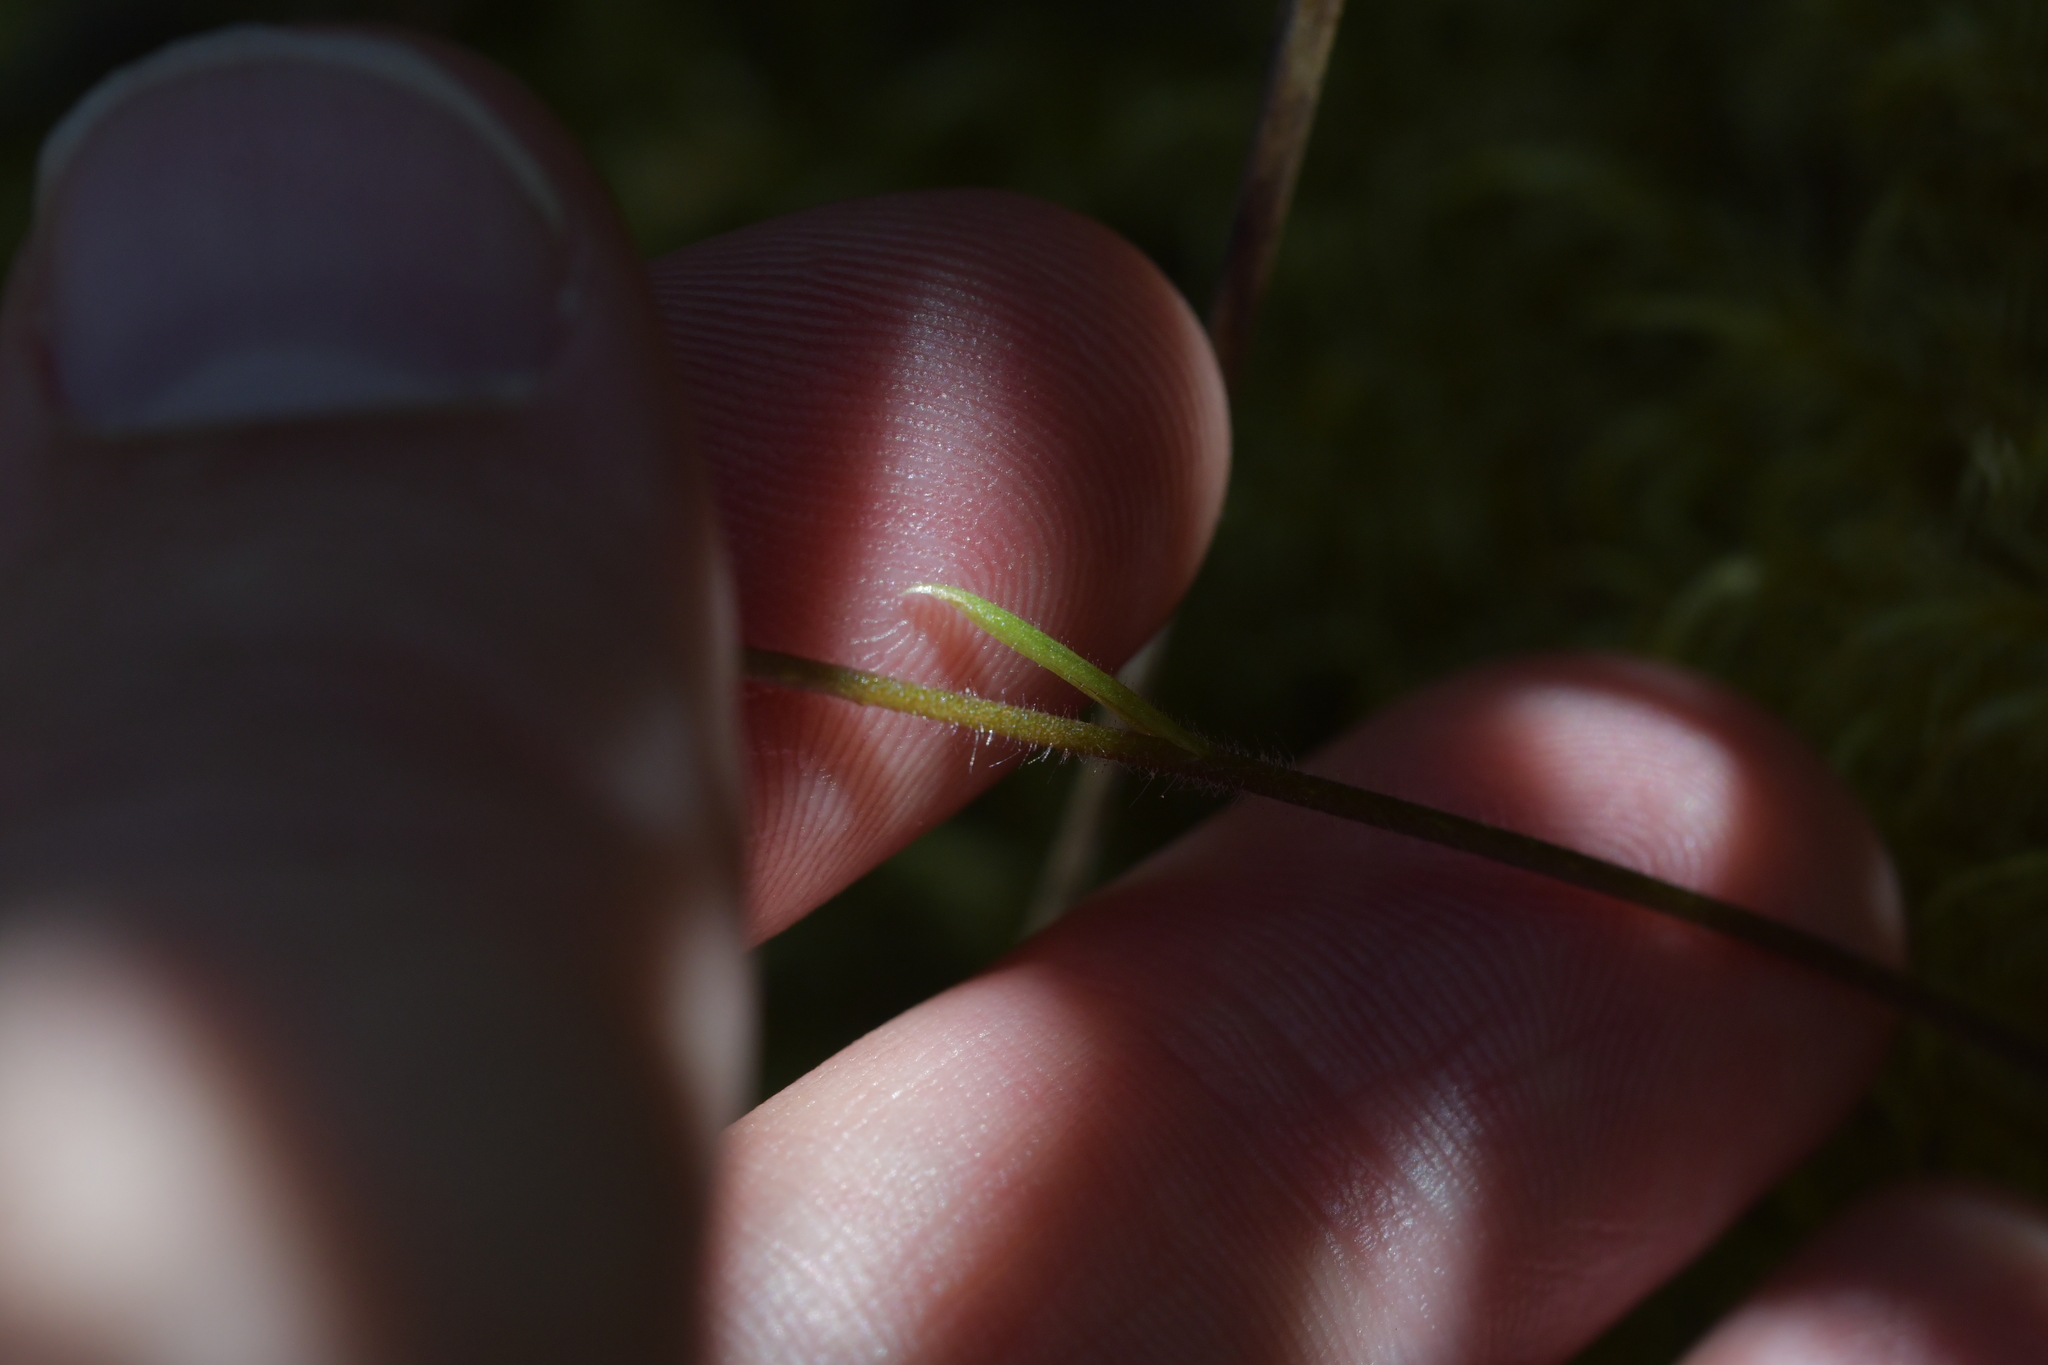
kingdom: Plantae
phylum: Tracheophyta
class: Liliopsida
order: Asparagales
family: Orchidaceae
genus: Caladenia
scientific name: Caladenia chlorostyla
